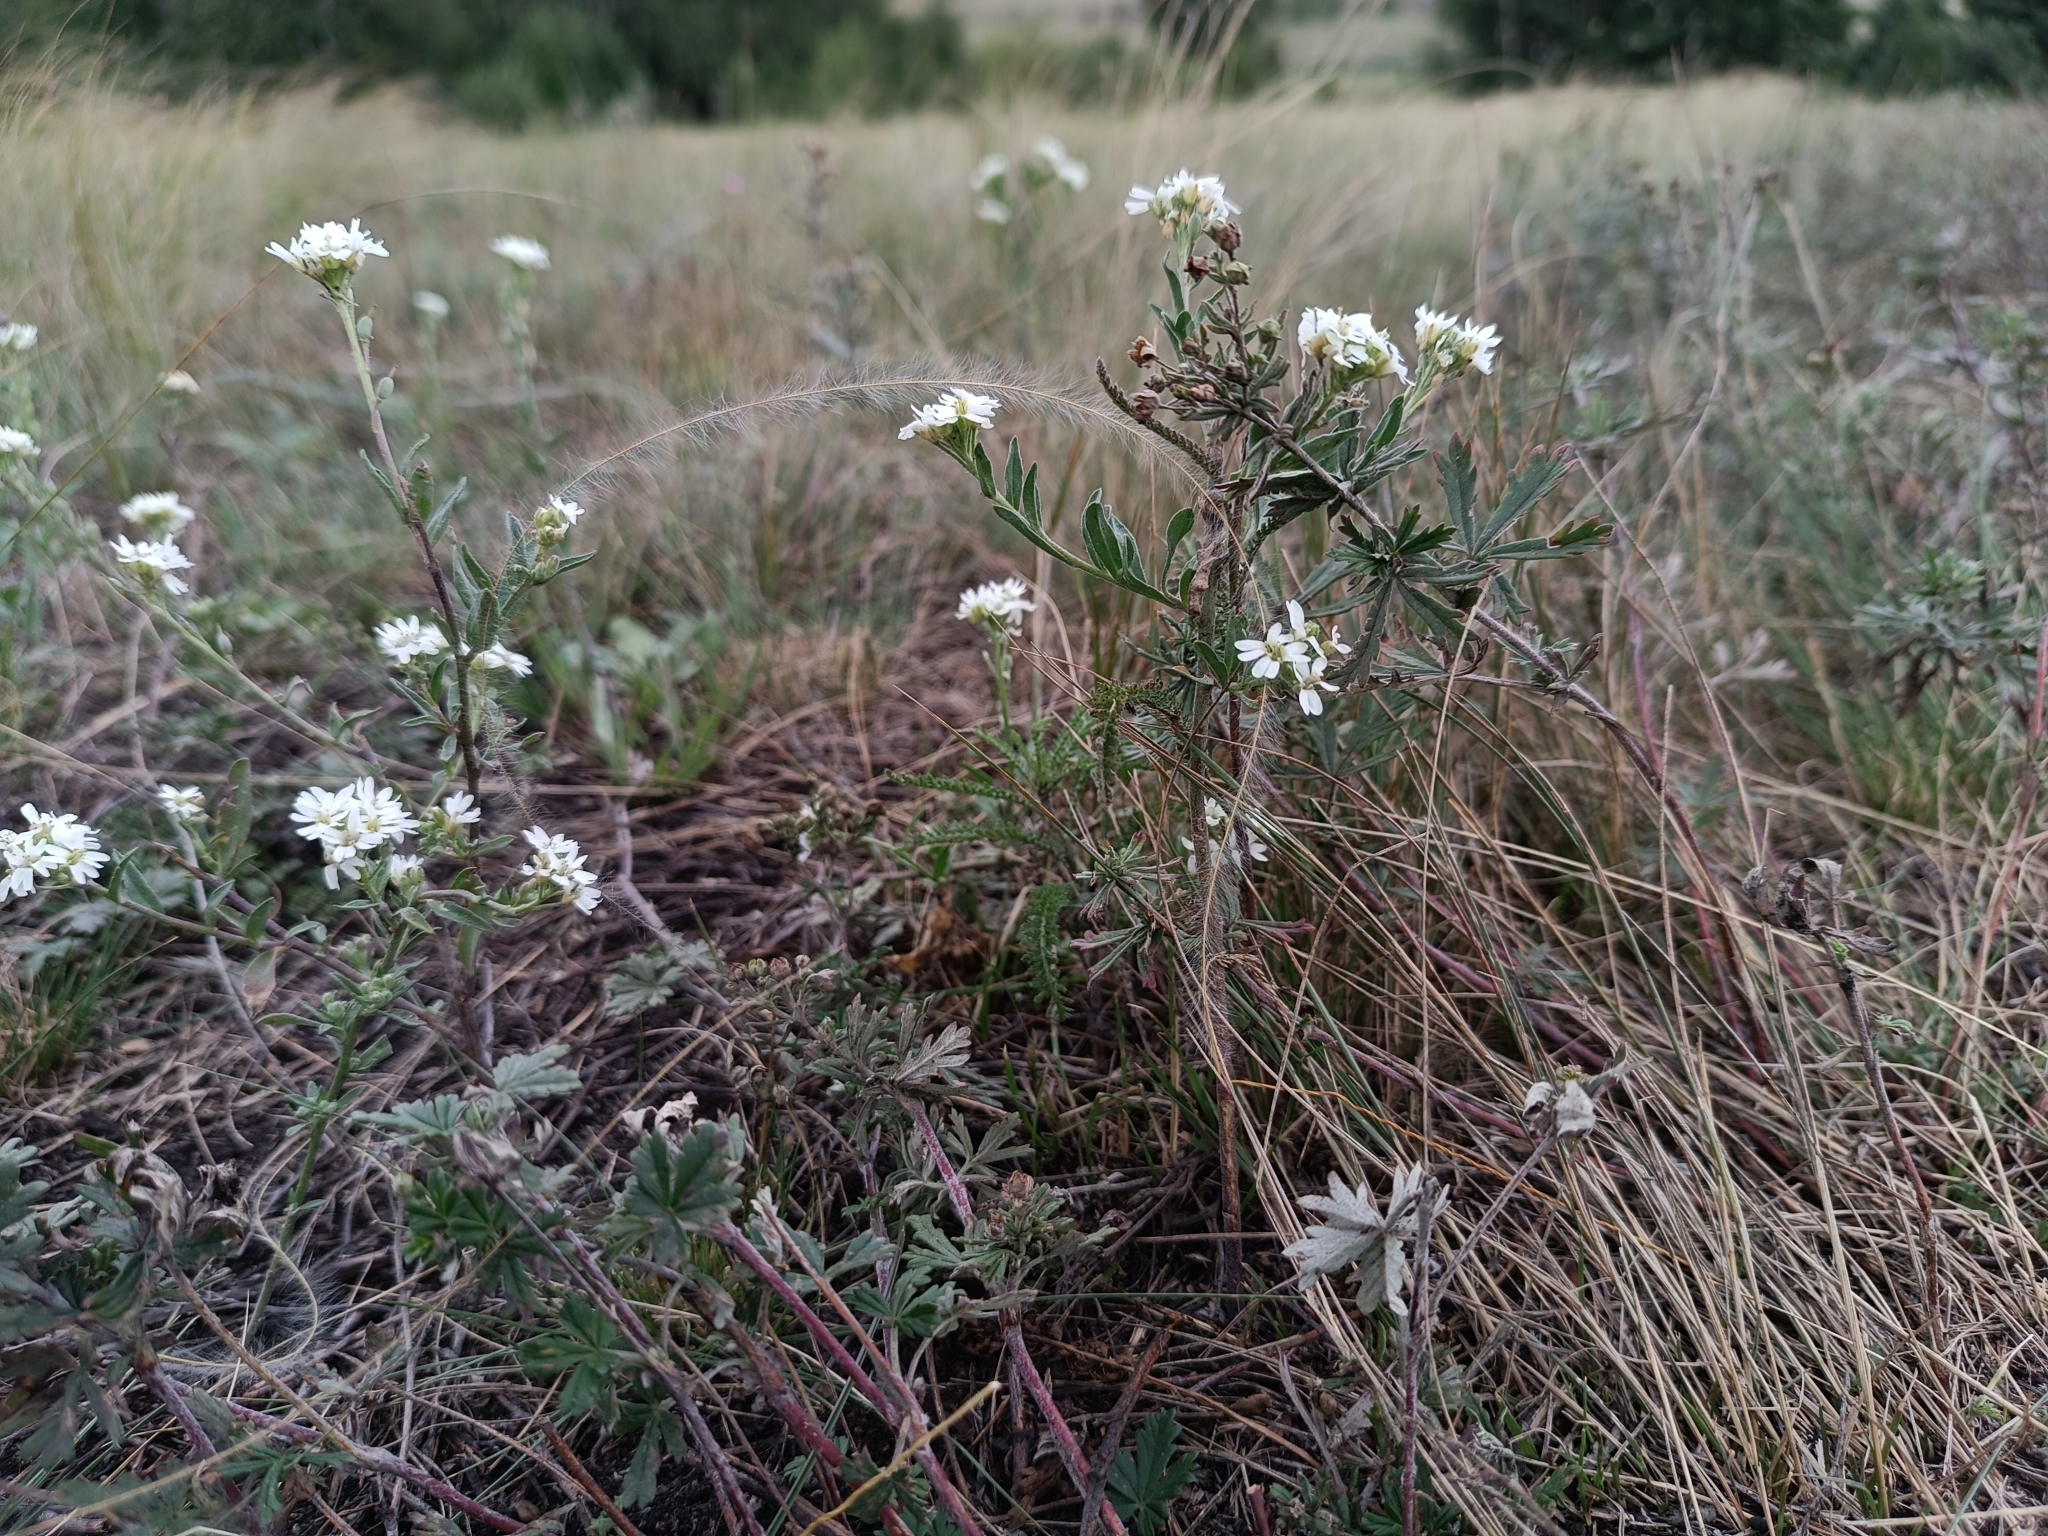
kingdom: Plantae
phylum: Tracheophyta
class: Magnoliopsida
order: Brassicales
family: Brassicaceae
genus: Berteroa
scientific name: Berteroa incana
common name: Hoary alison
